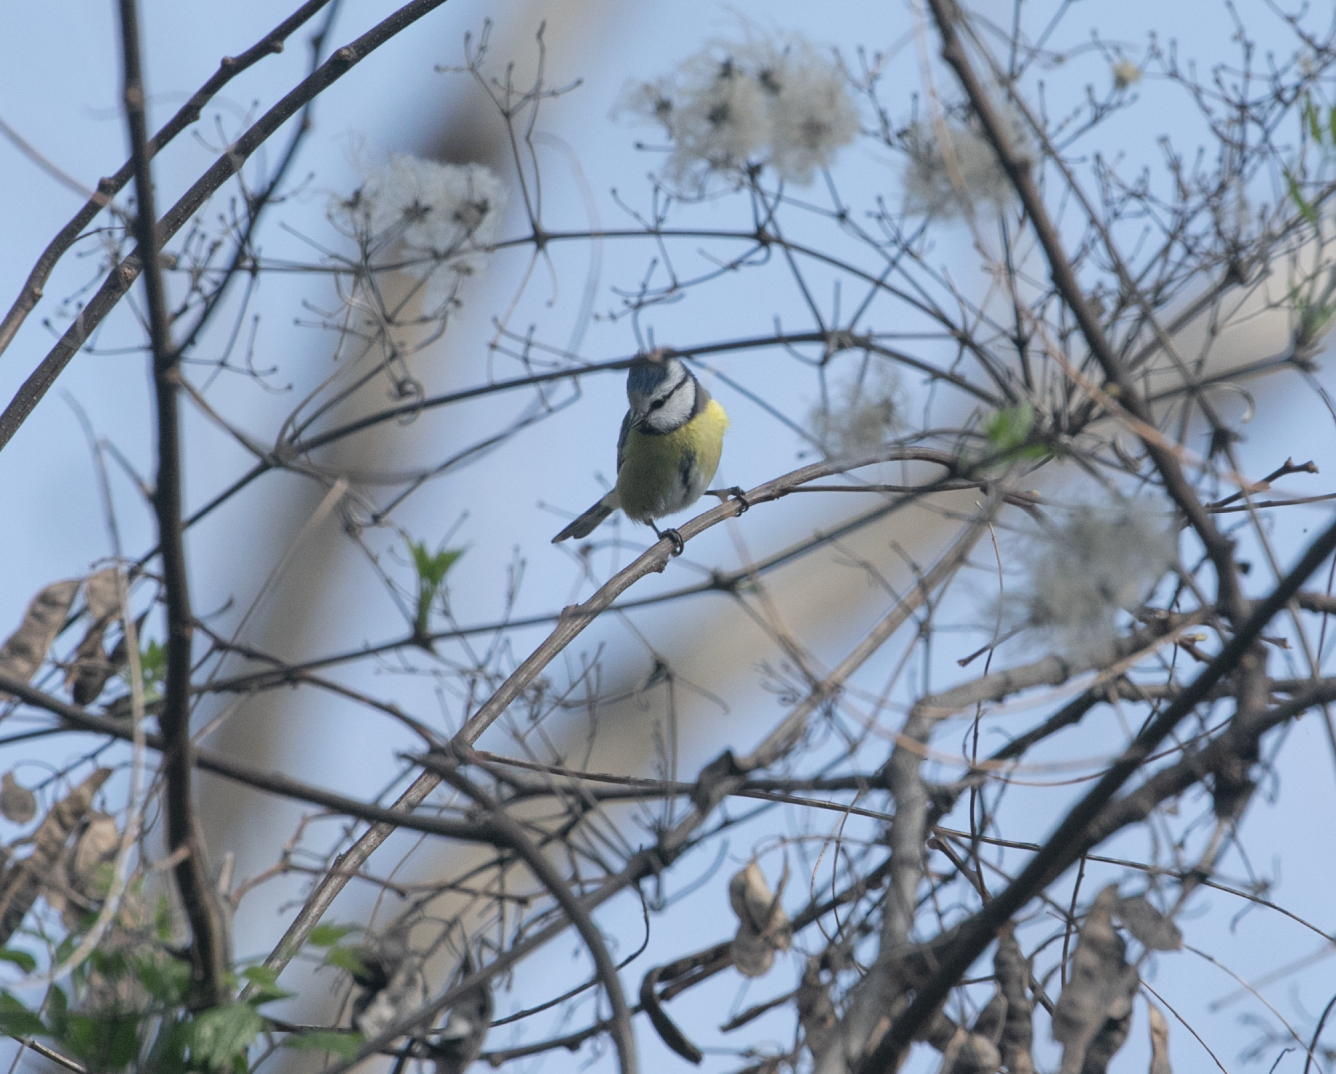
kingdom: Animalia
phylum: Chordata
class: Aves
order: Passeriformes
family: Paridae
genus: Cyanistes
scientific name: Cyanistes caeruleus
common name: Eurasian blue tit
